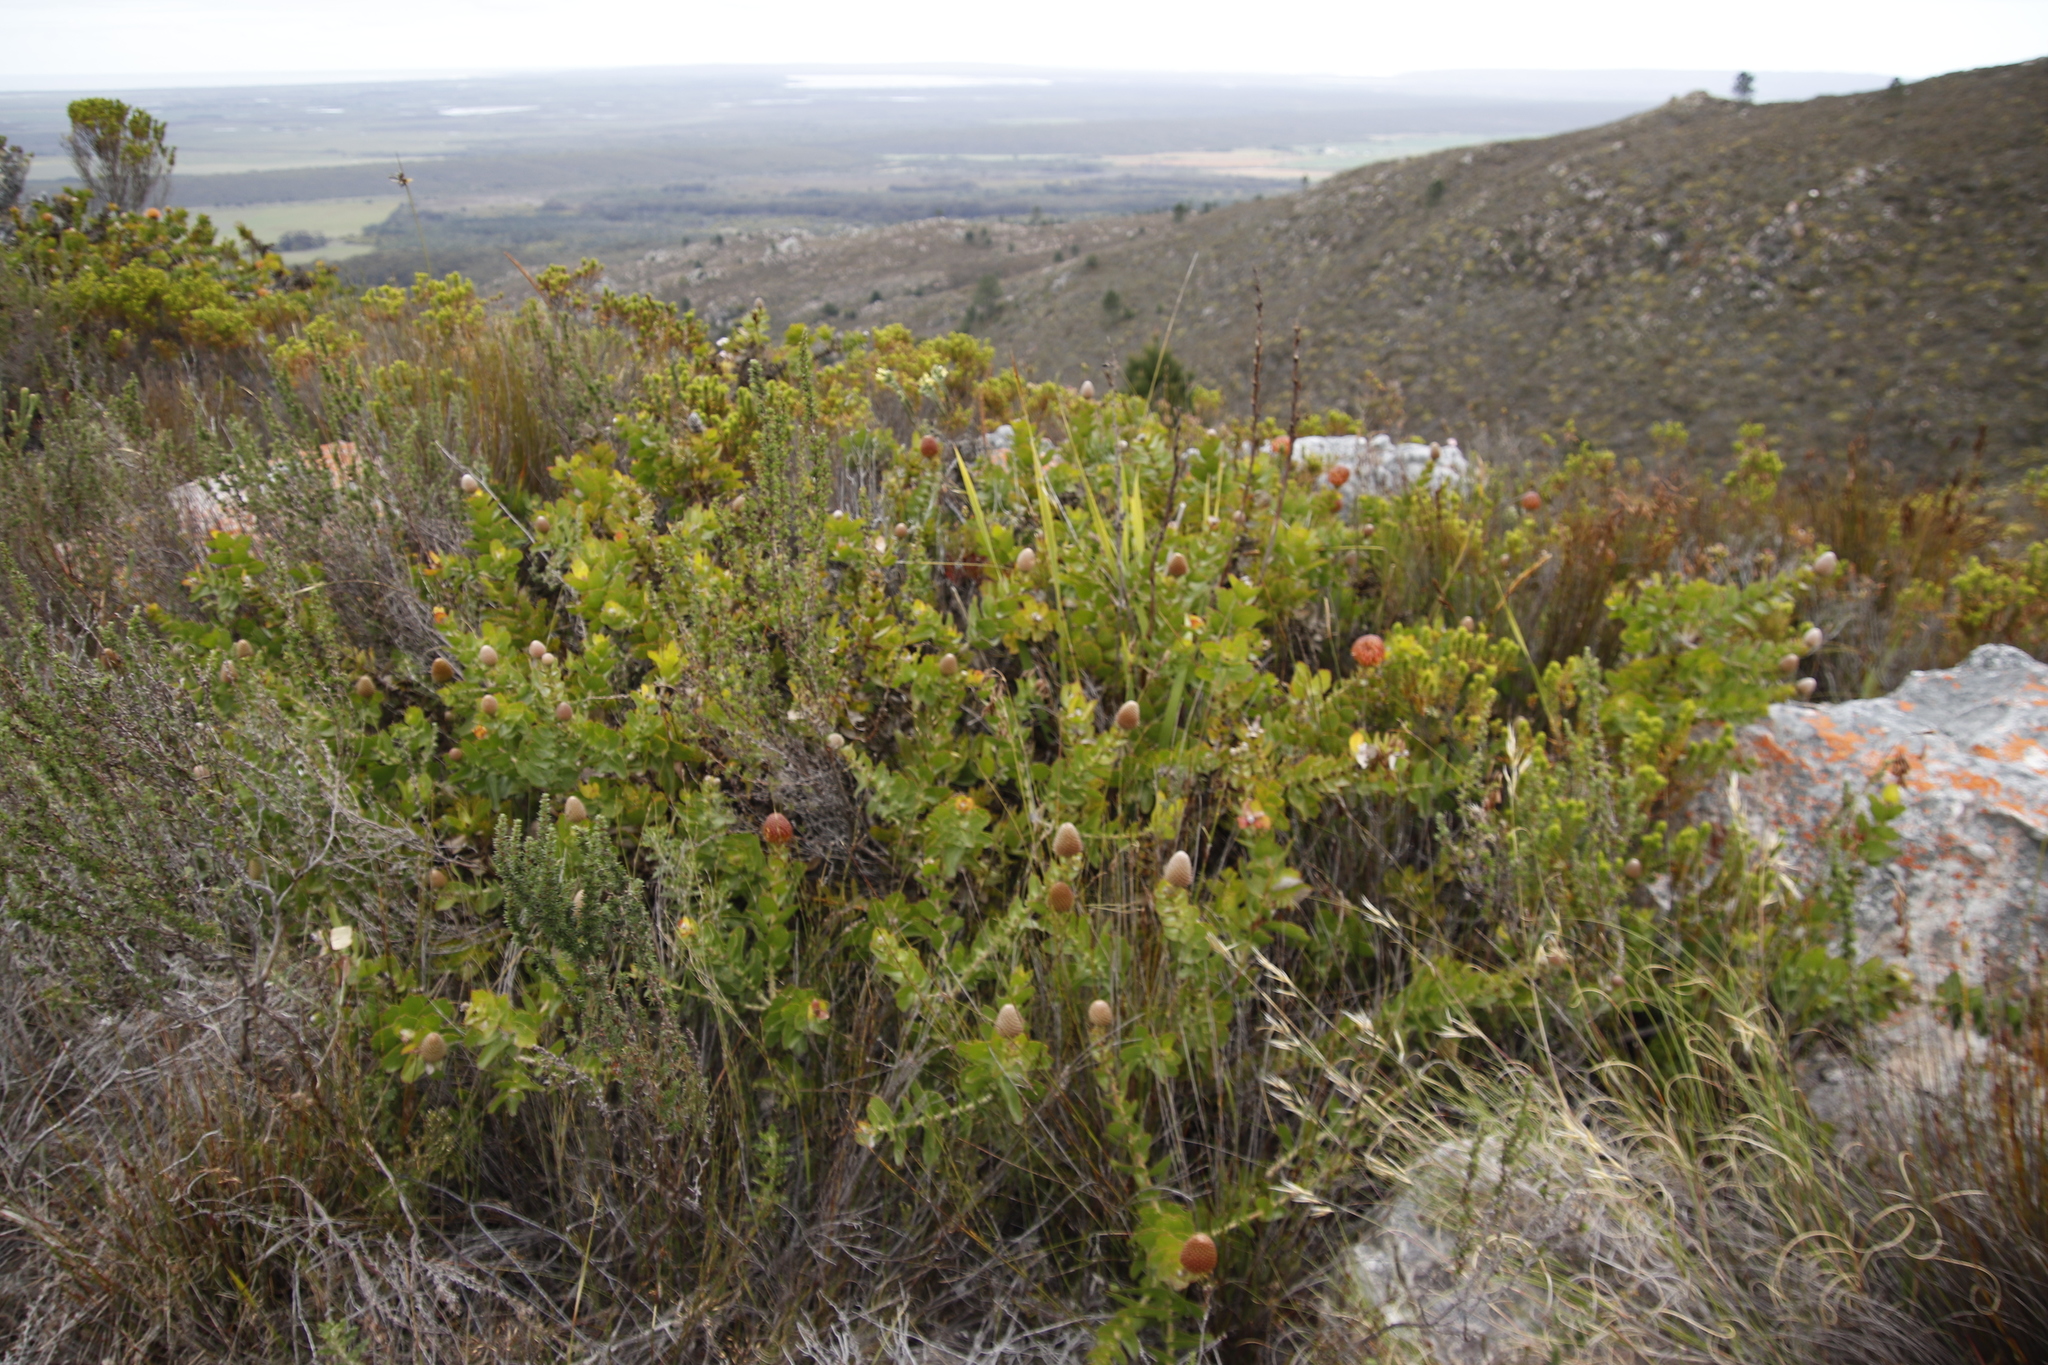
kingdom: Plantae
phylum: Tracheophyta
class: Magnoliopsida
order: Proteales
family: Proteaceae
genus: Leucospermum
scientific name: Leucospermum cordifolium
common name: Red pincushion-protea
